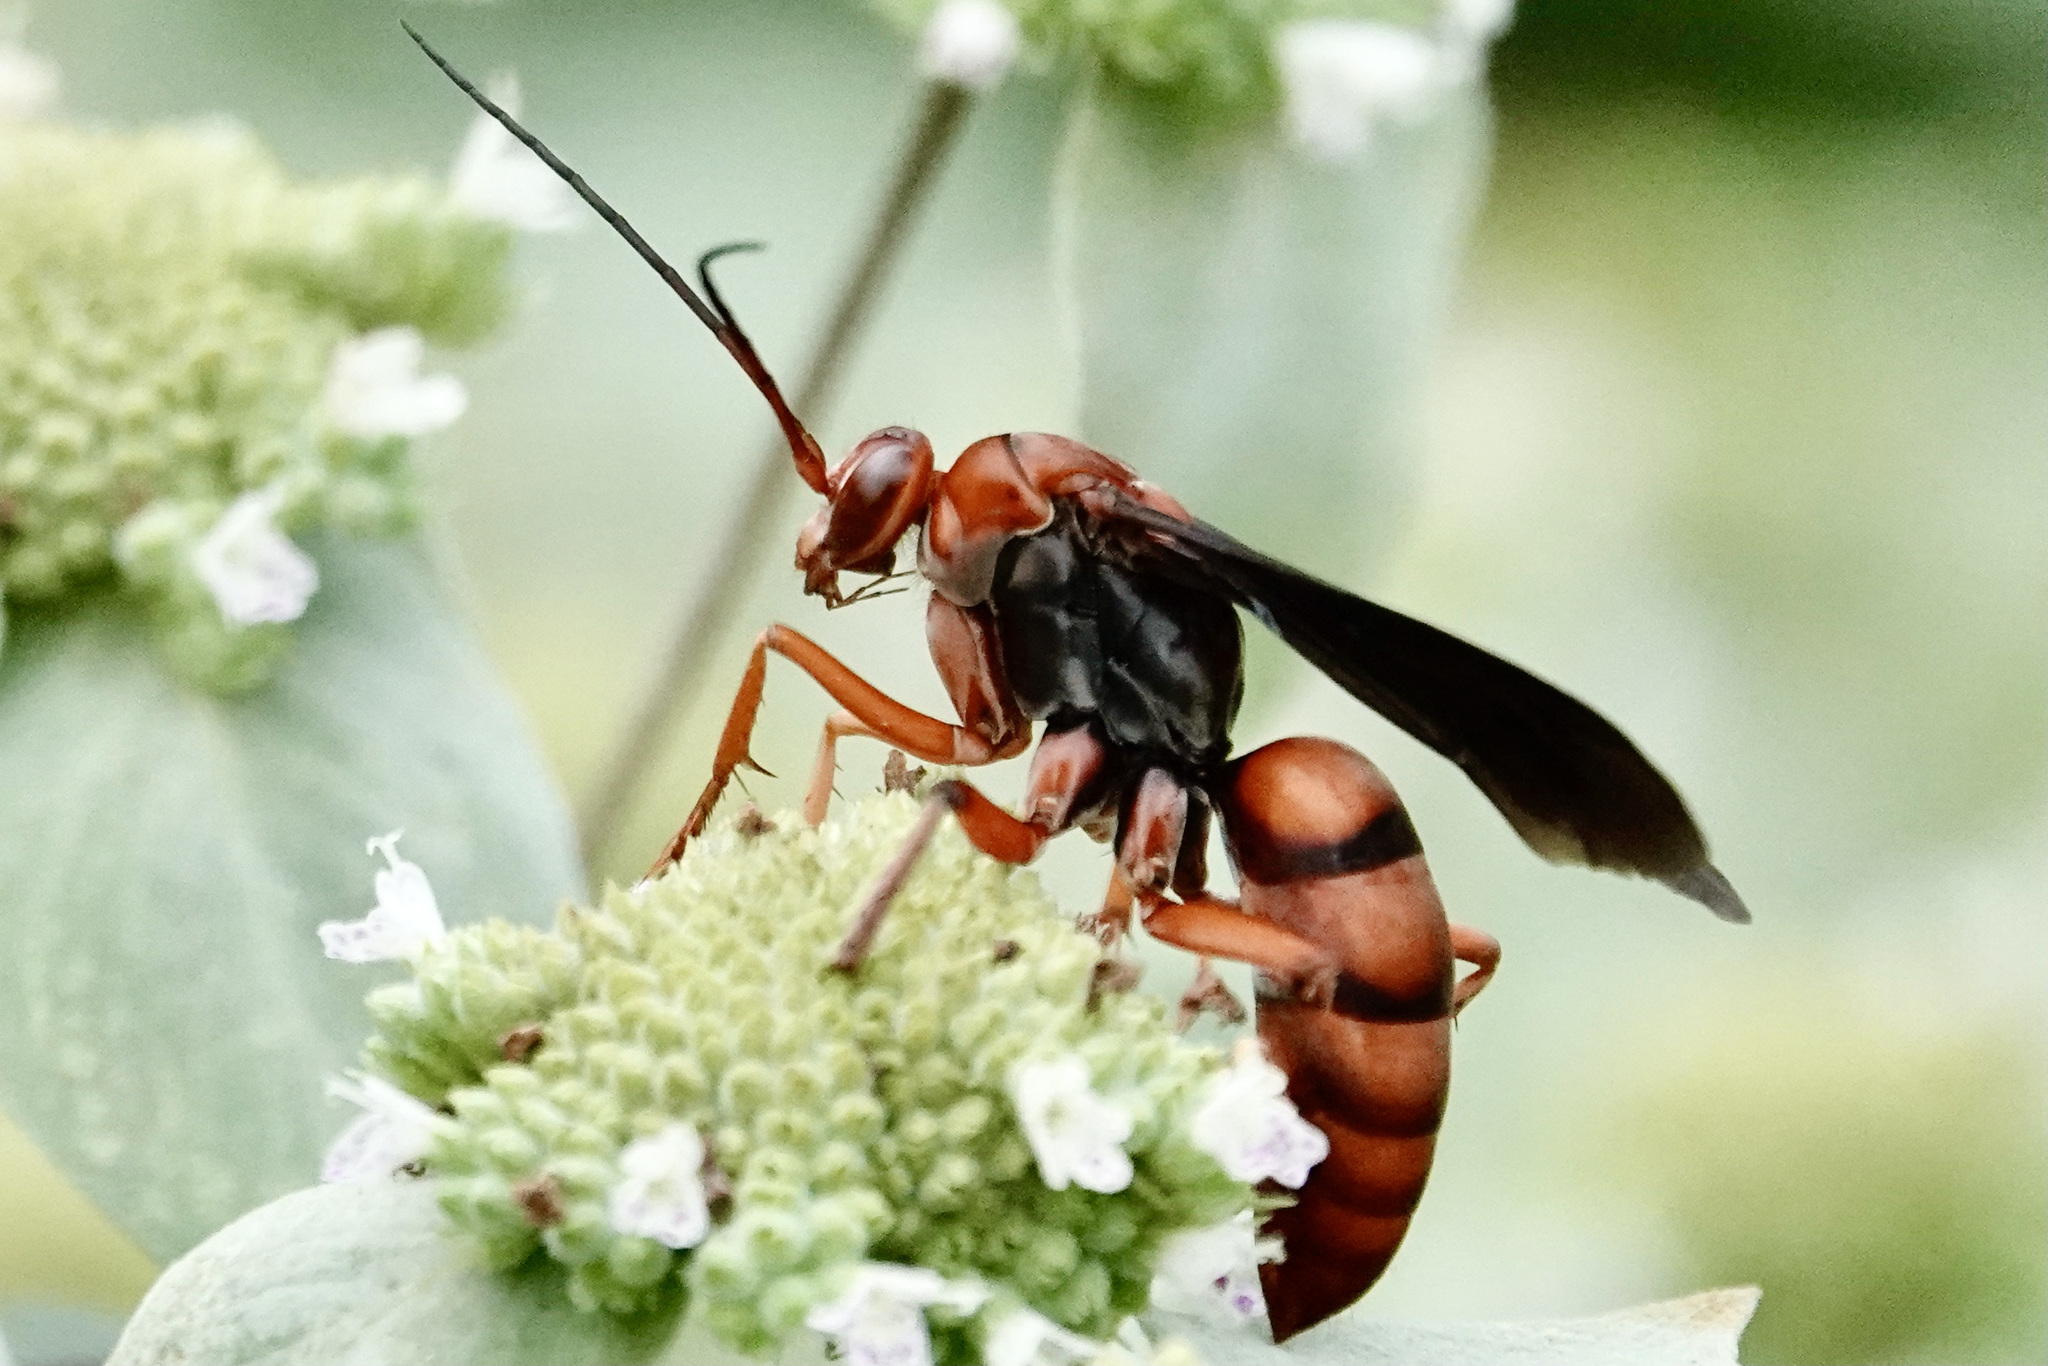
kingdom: Animalia
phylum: Arthropoda
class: Insecta
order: Hymenoptera
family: Pompilidae
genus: Tachypompilus
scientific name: Tachypompilus ferrugineus
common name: Rusty spider wasp
